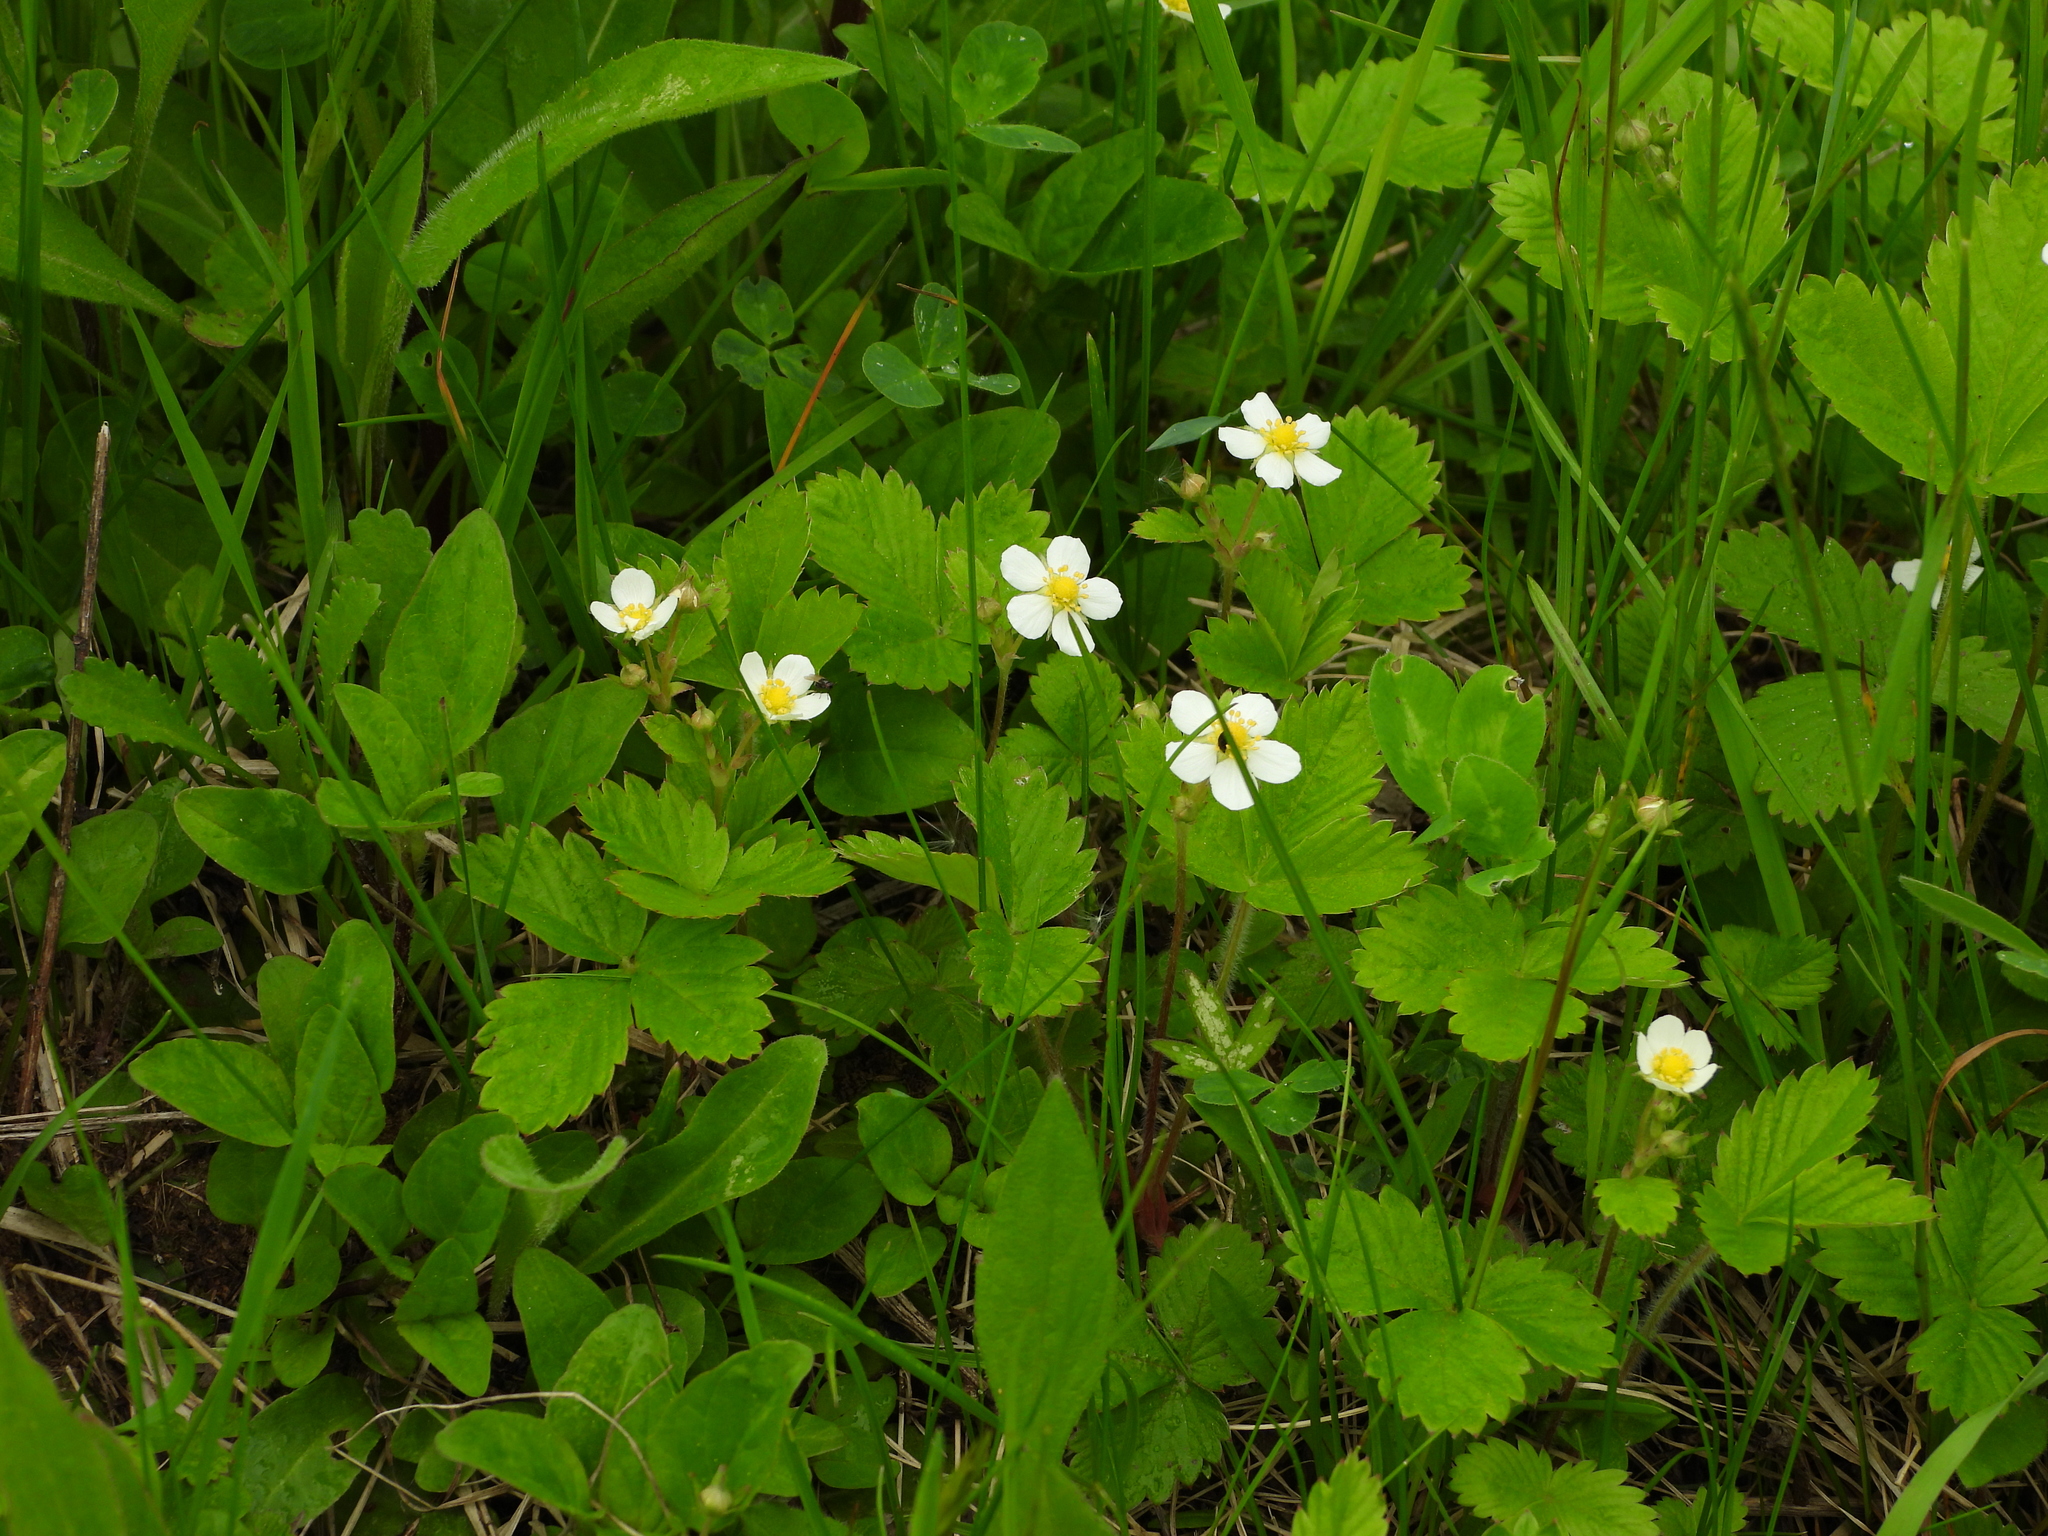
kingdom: Plantae
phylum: Tracheophyta
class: Magnoliopsida
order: Rosales
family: Rosaceae
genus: Fragaria
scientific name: Fragaria vesca
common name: Wild strawberry
